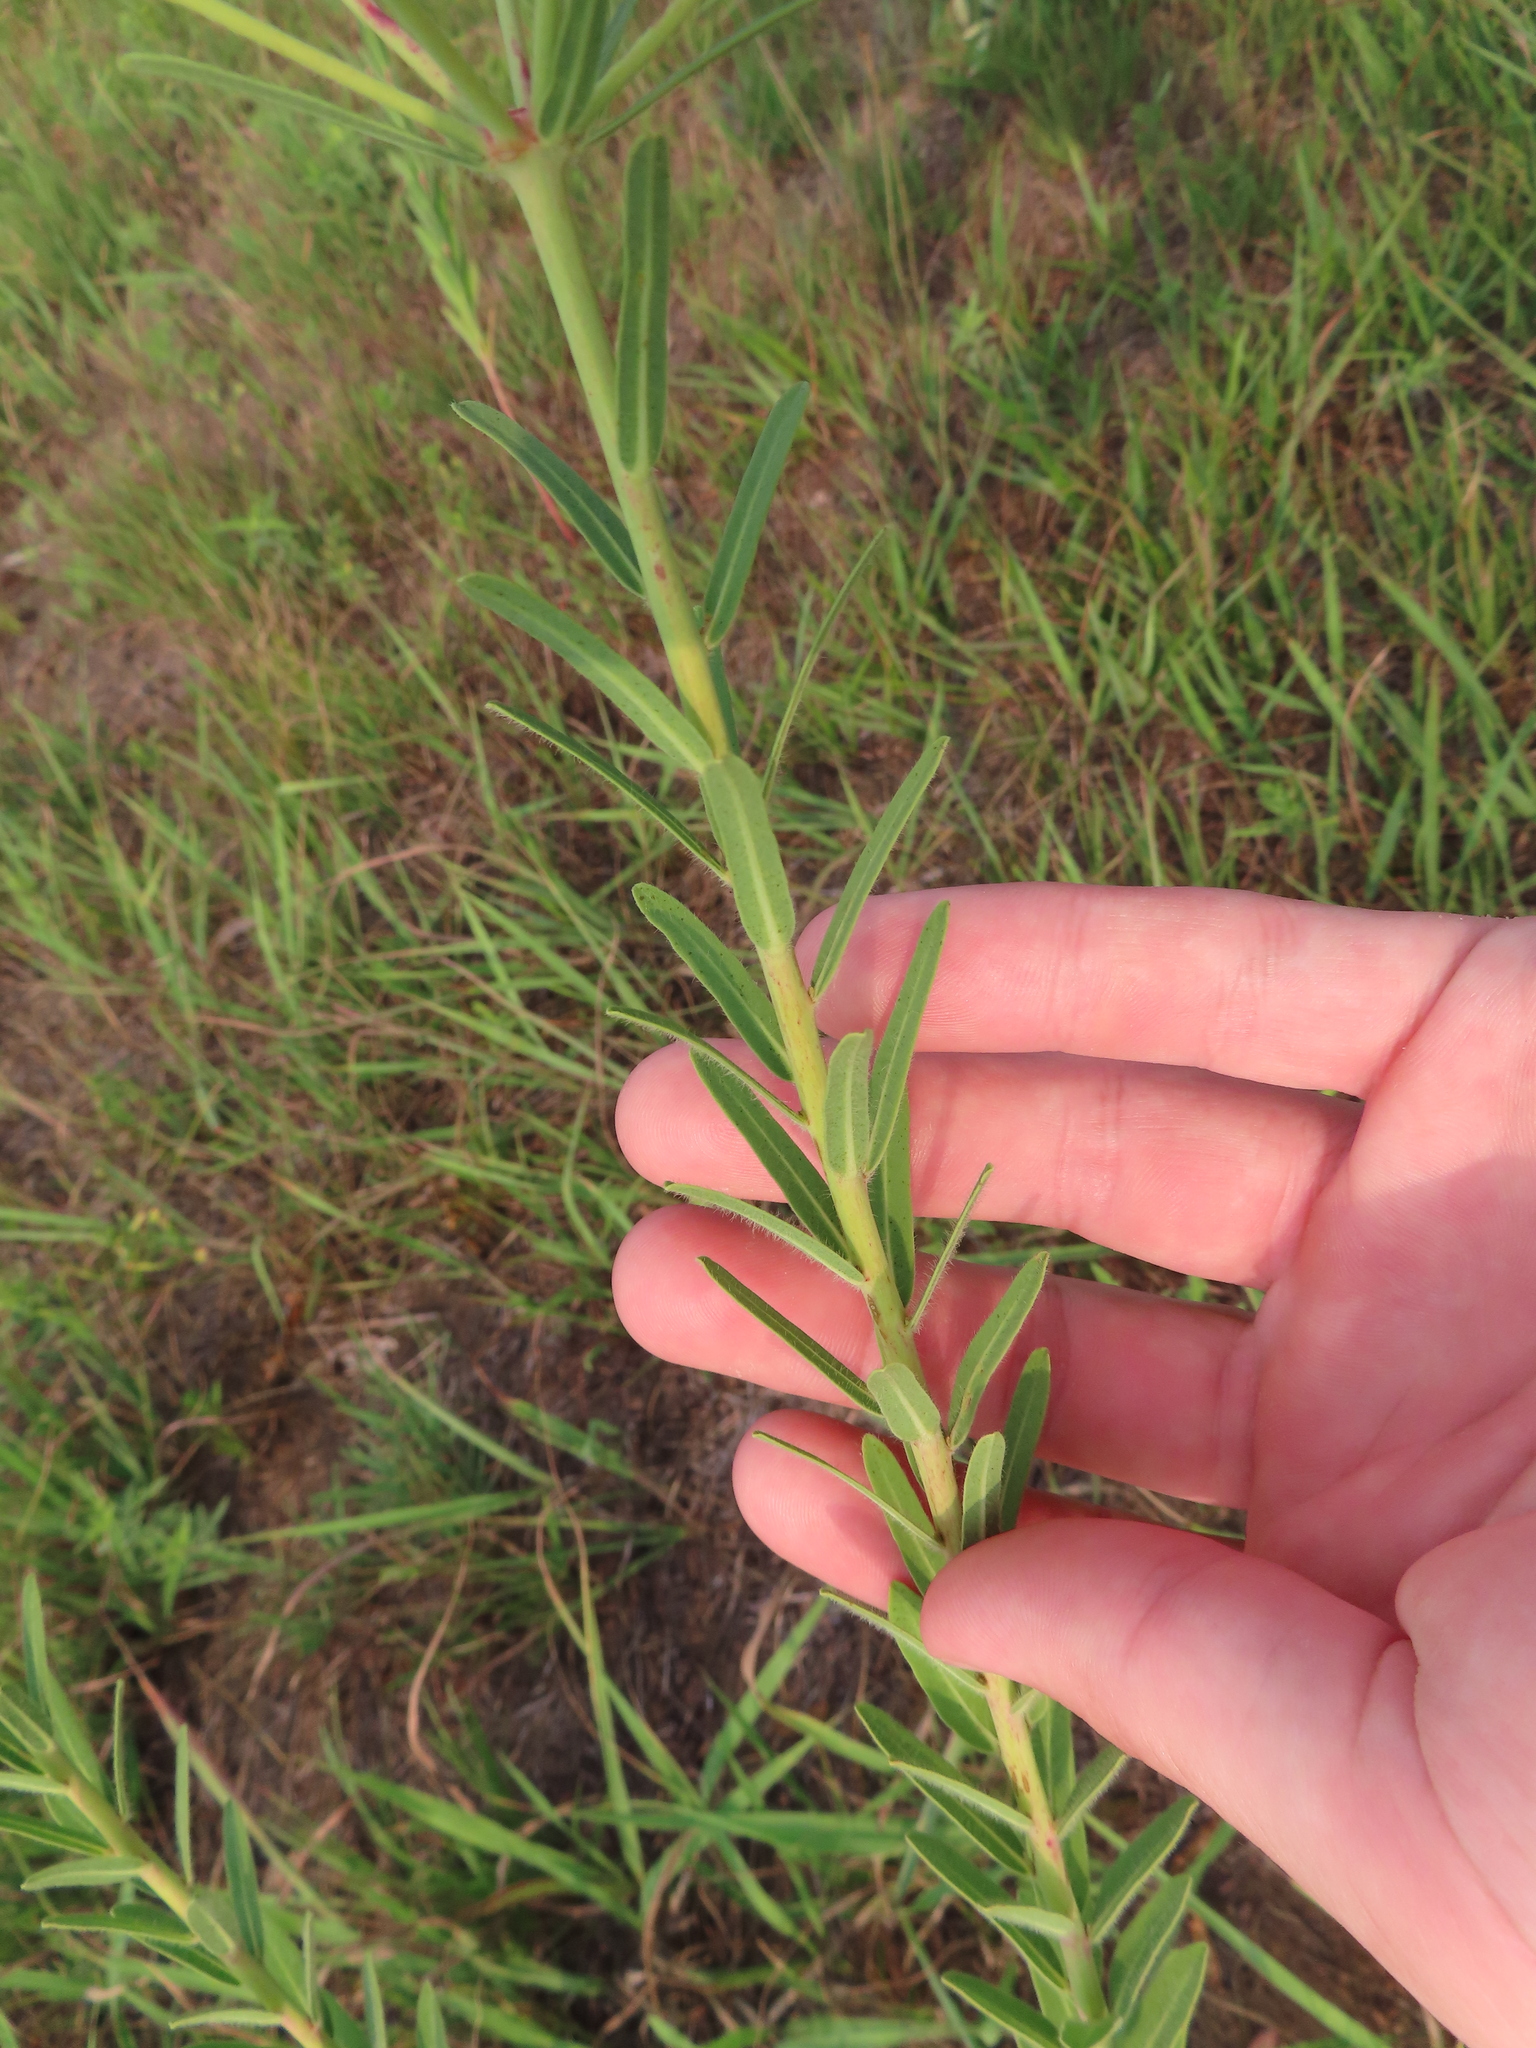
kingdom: Plantae
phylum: Tracheophyta
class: Magnoliopsida
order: Malpighiales
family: Euphorbiaceae
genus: Euphorbia
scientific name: Euphorbia corollata
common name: Flowering spurge
